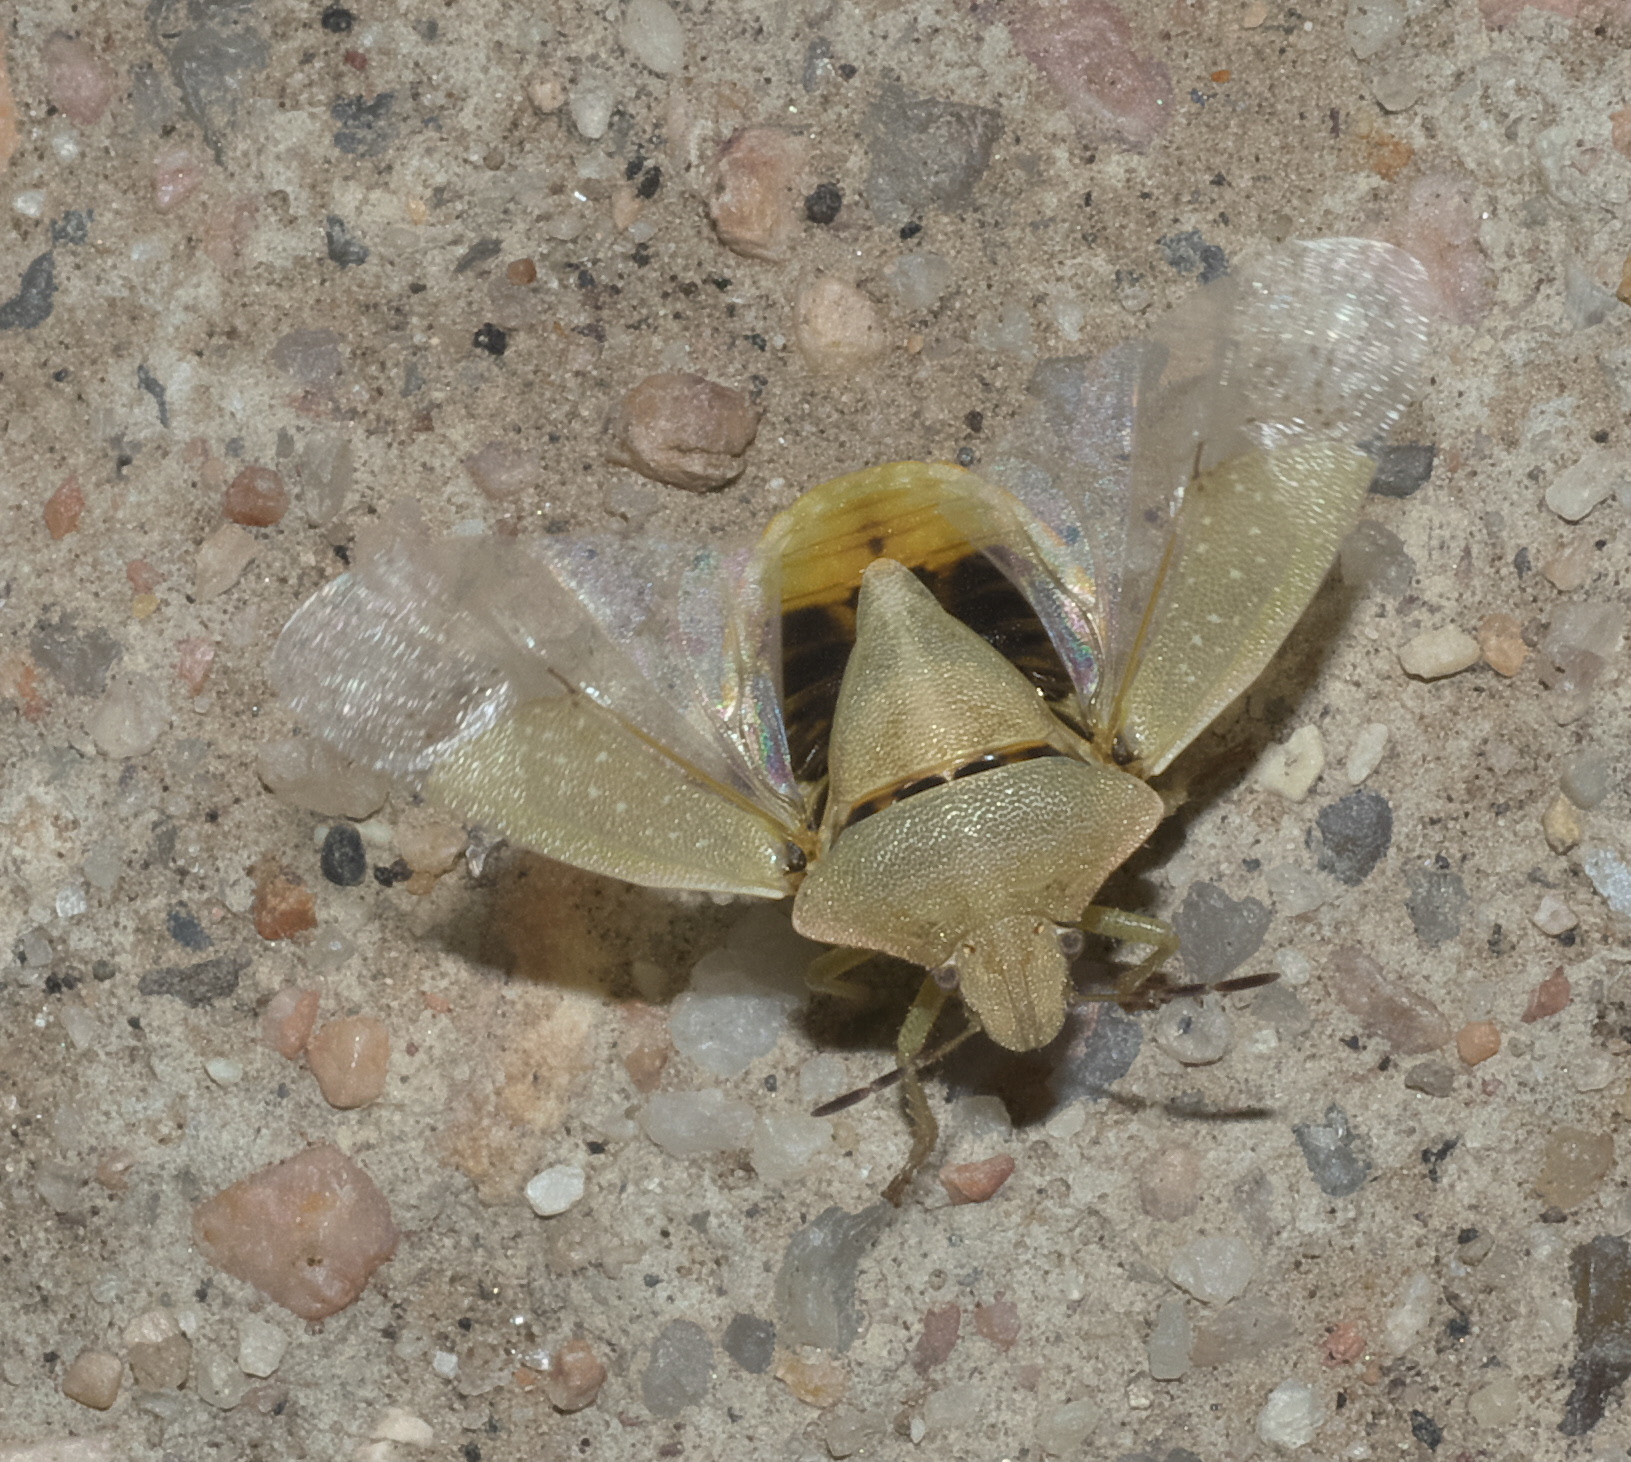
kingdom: Animalia
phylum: Arthropoda
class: Insecta
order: Hemiptera
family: Pentatomidae
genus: Thyanta
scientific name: Thyanta accerra
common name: Stink bug
